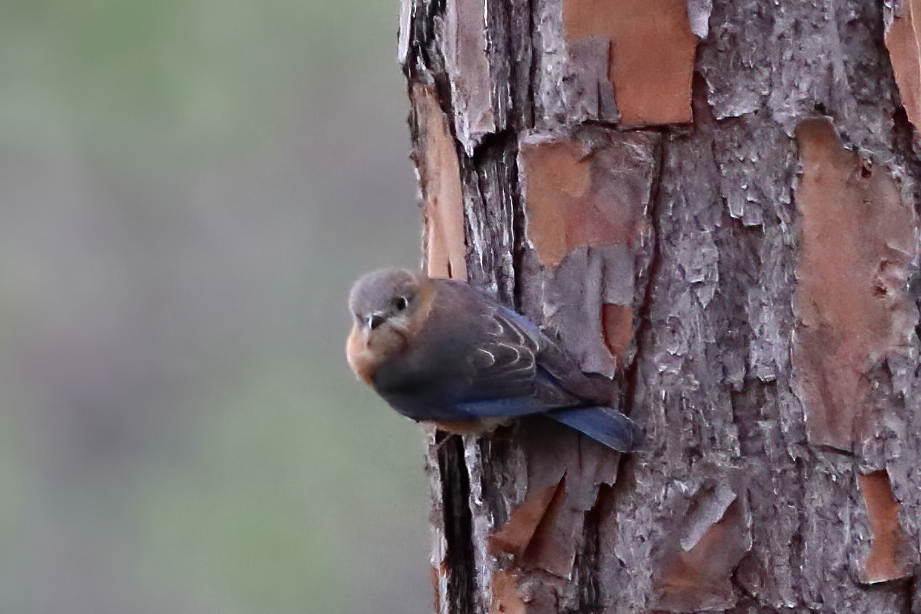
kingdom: Animalia
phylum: Chordata
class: Aves
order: Passeriformes
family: Turdidae
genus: Sialia
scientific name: Sialia sialis
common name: Eastern bluebird
